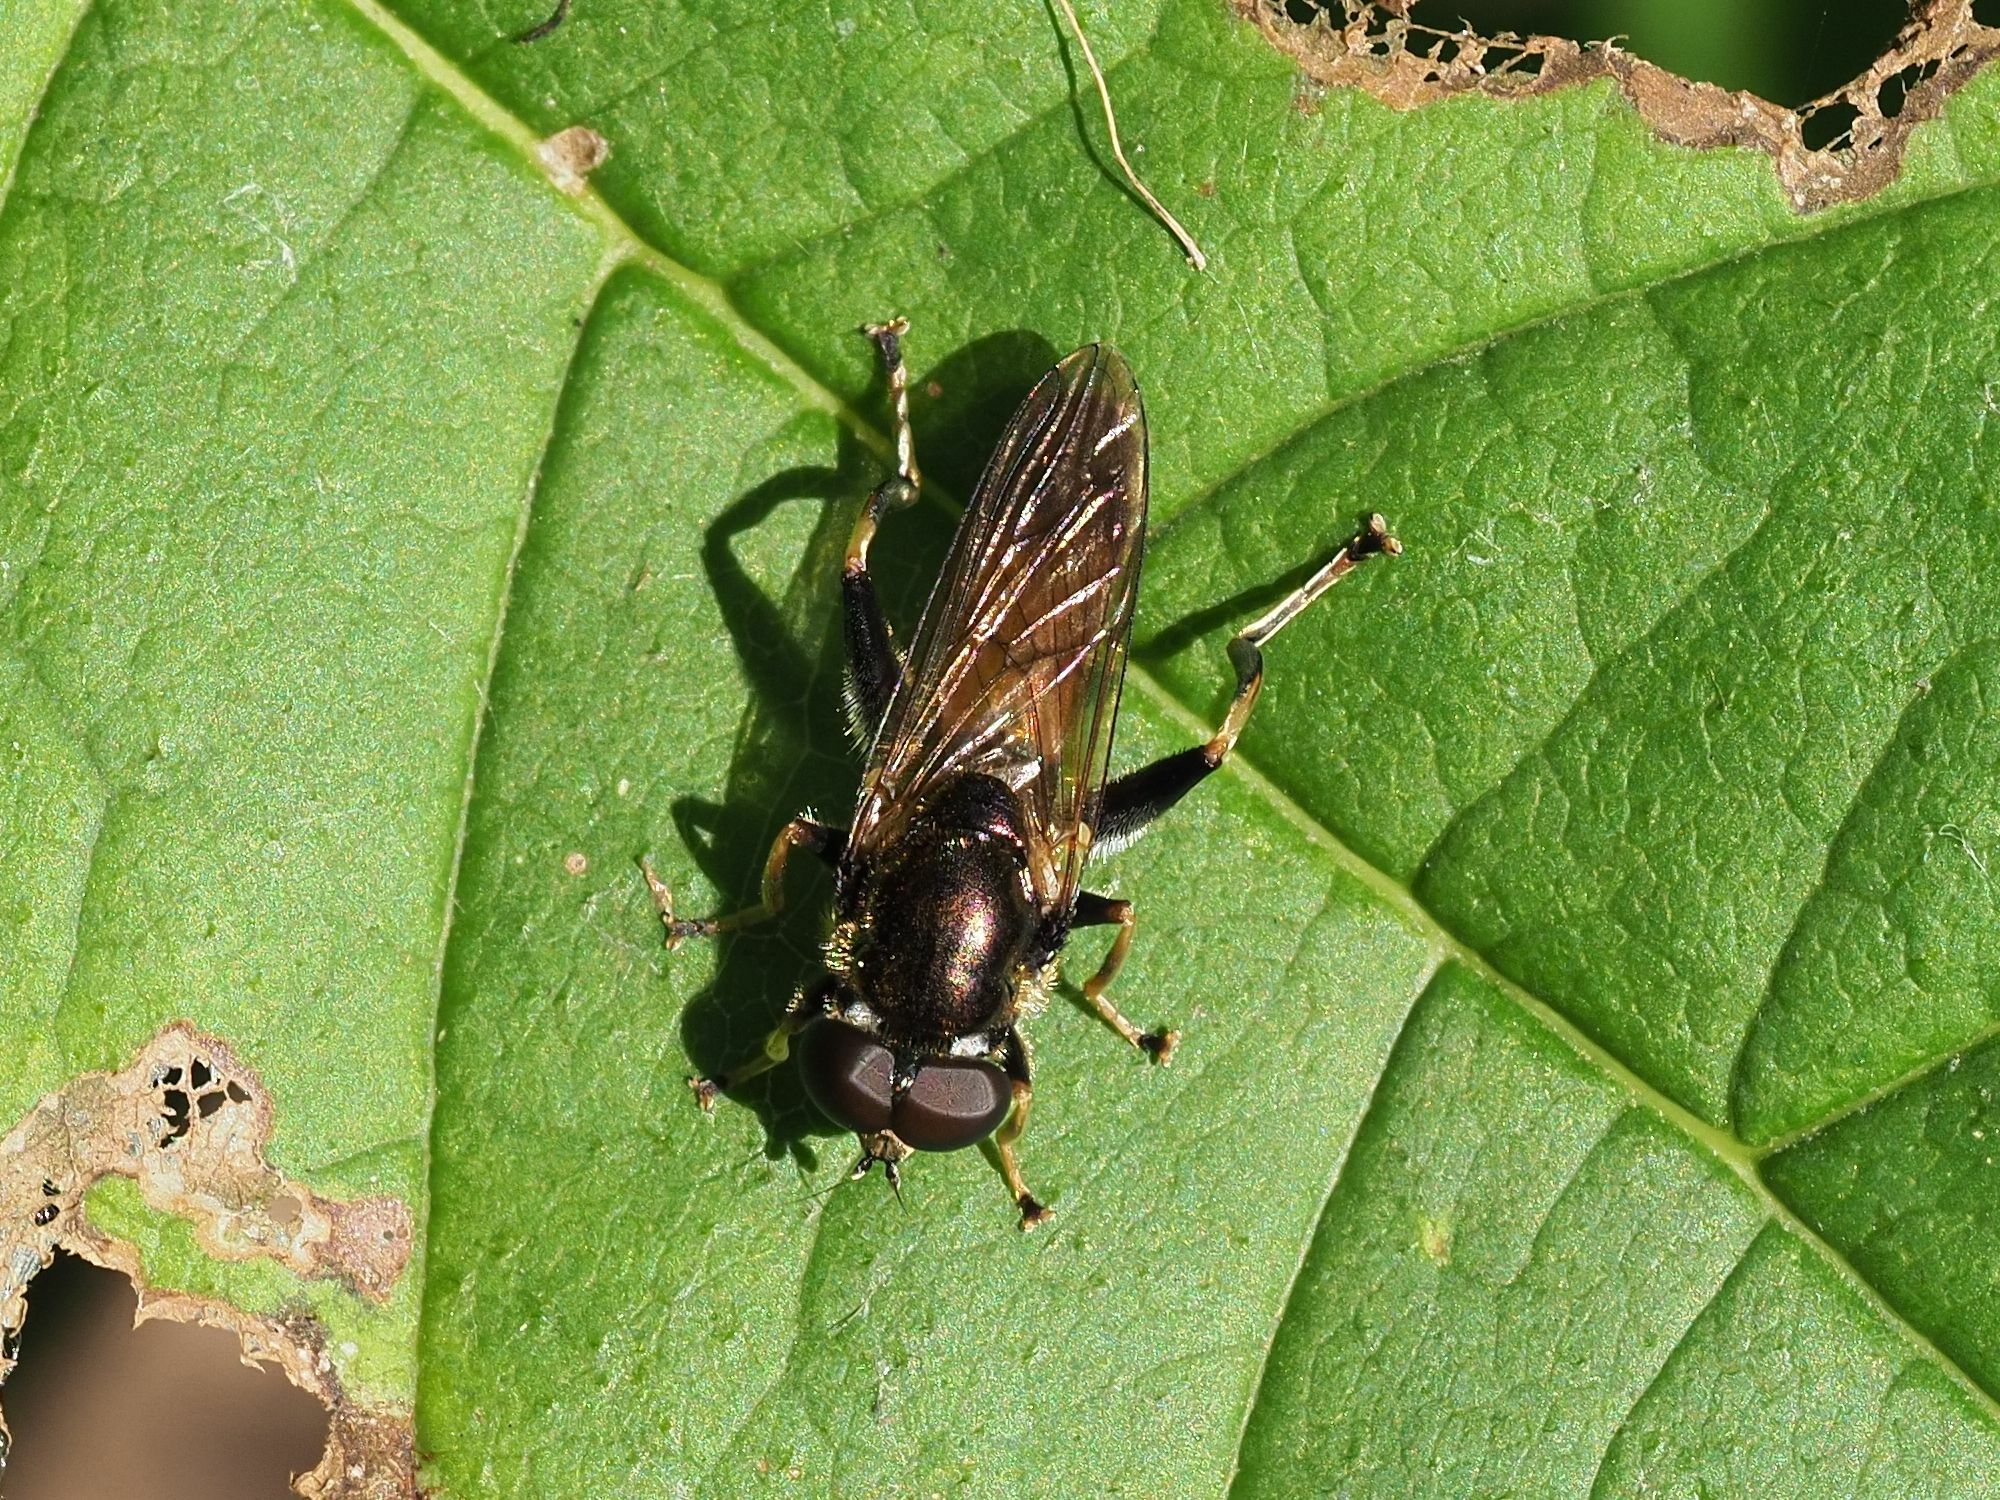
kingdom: Animalia
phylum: Arthropoda
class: Insecta
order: Diptera
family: Syrphidae
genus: Xylota
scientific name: Xylota segnis
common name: Brown-toed forest fly
